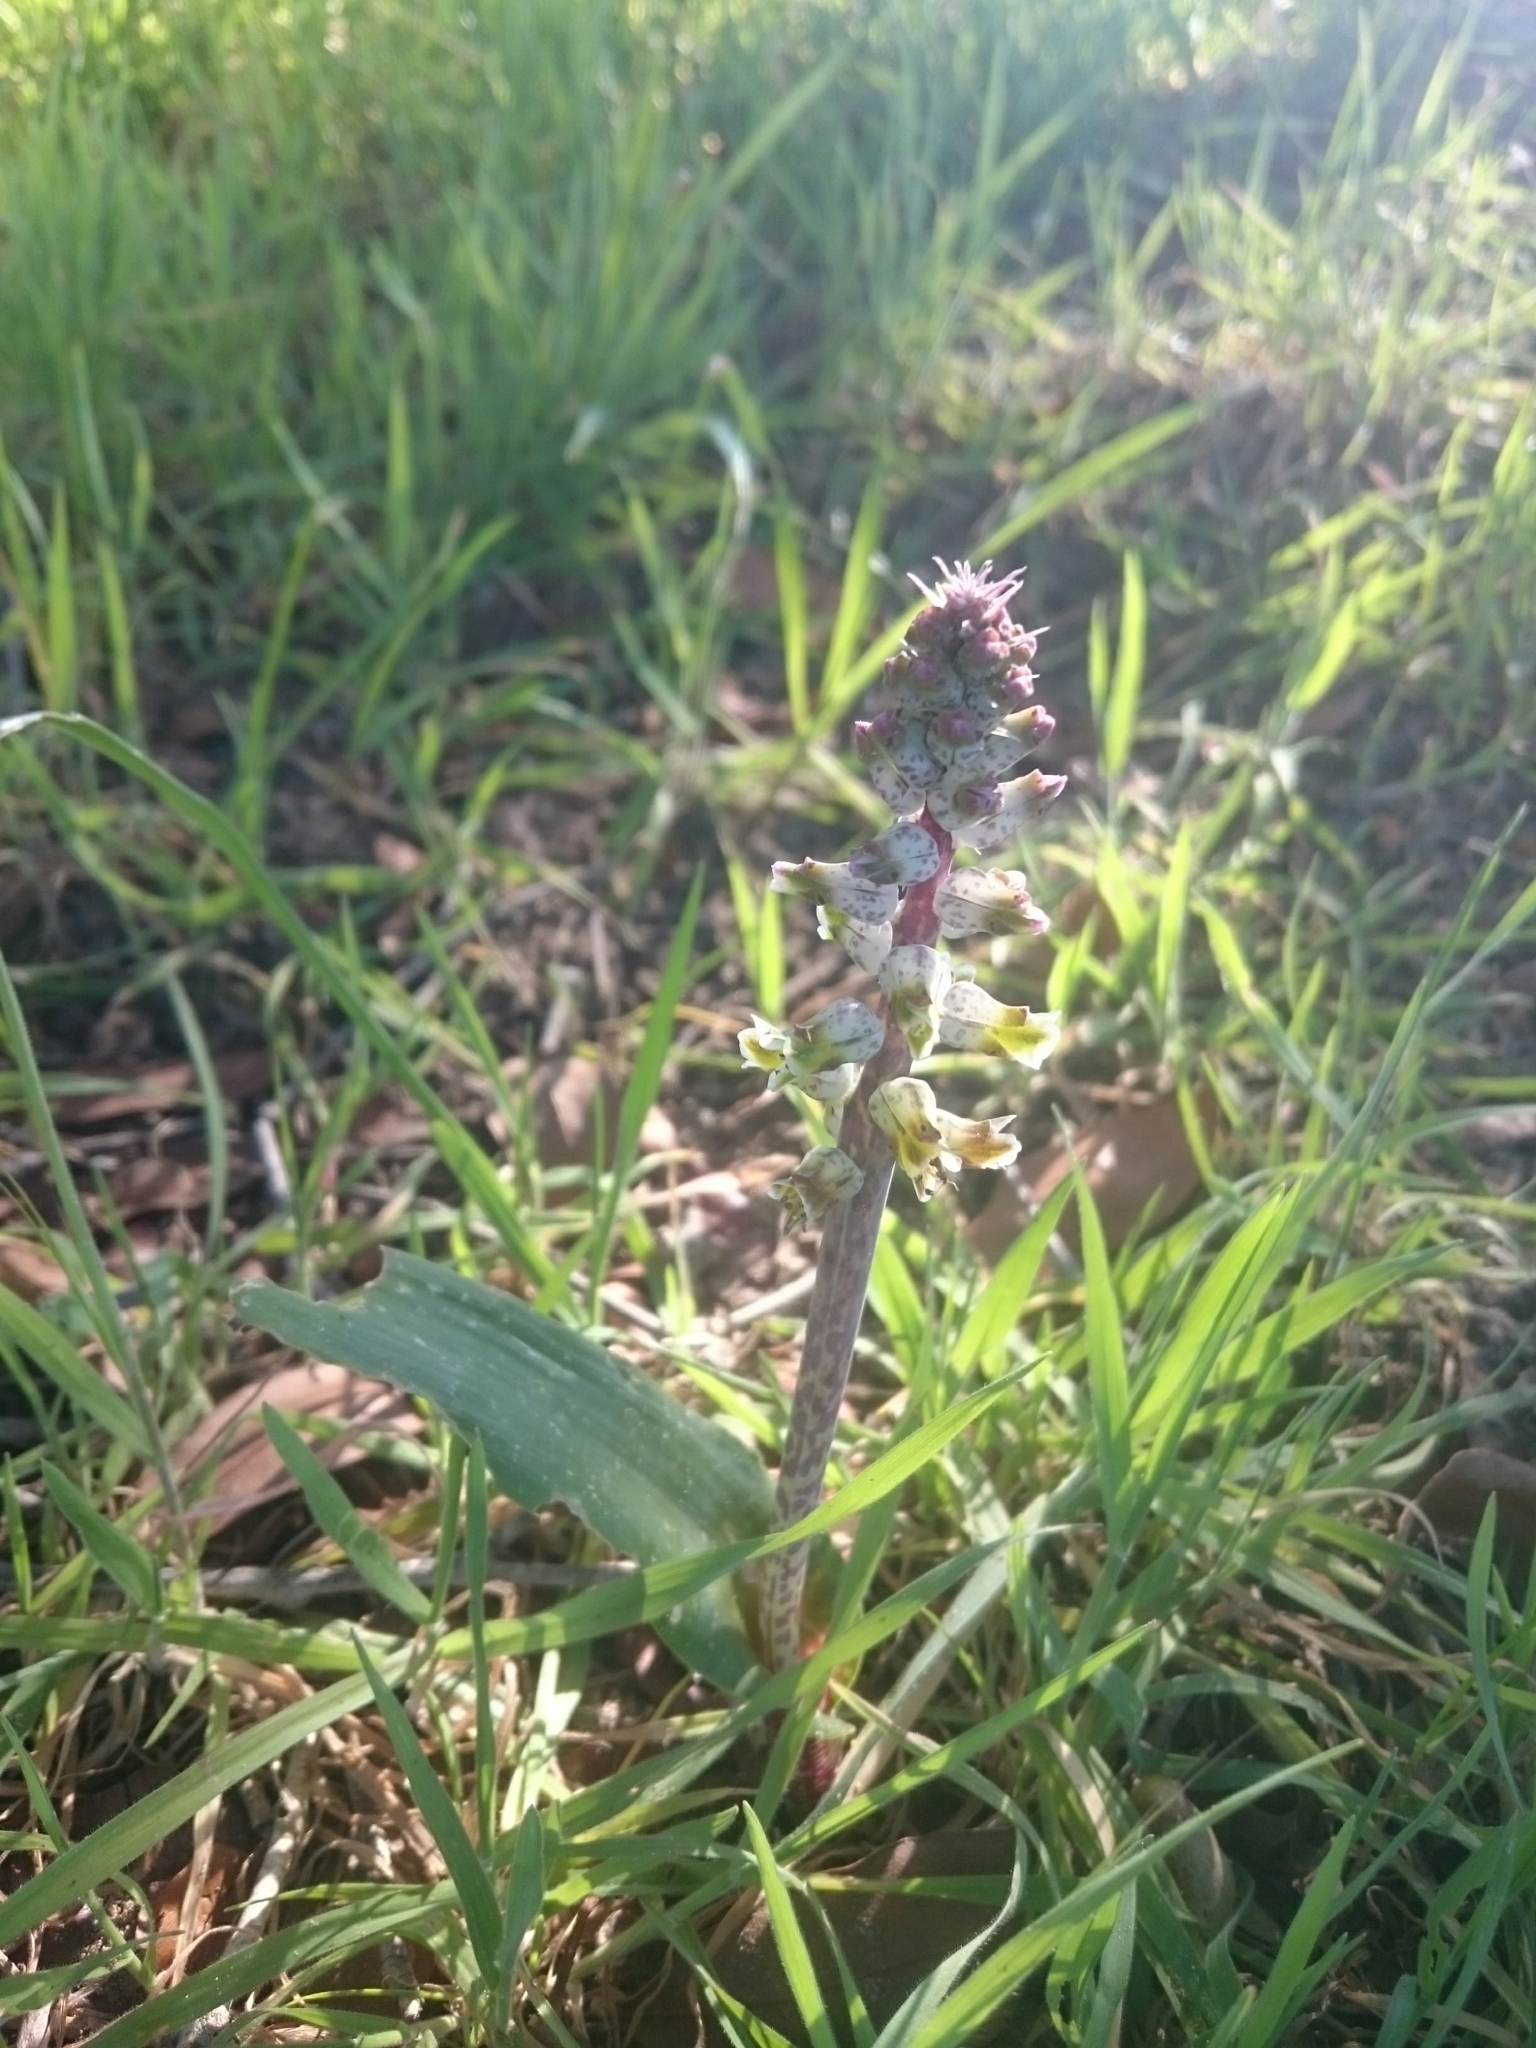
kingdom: Plantae
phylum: Tracheophyta
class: Liliopsida
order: Asparagales
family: Asparagaceae
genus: Lachenalia
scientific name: Lachenalia variegata
